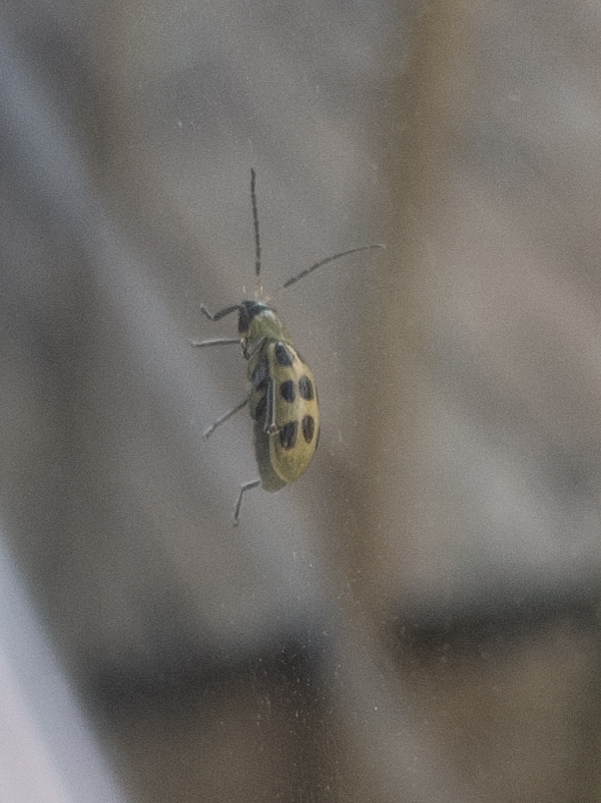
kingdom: Animalia
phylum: Arthropoda
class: Insecta
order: Coleoptera
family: Chrysomelidae
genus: Diabrotica
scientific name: Diabrotica undecimpunctata
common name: Spotted cucumber beetle
